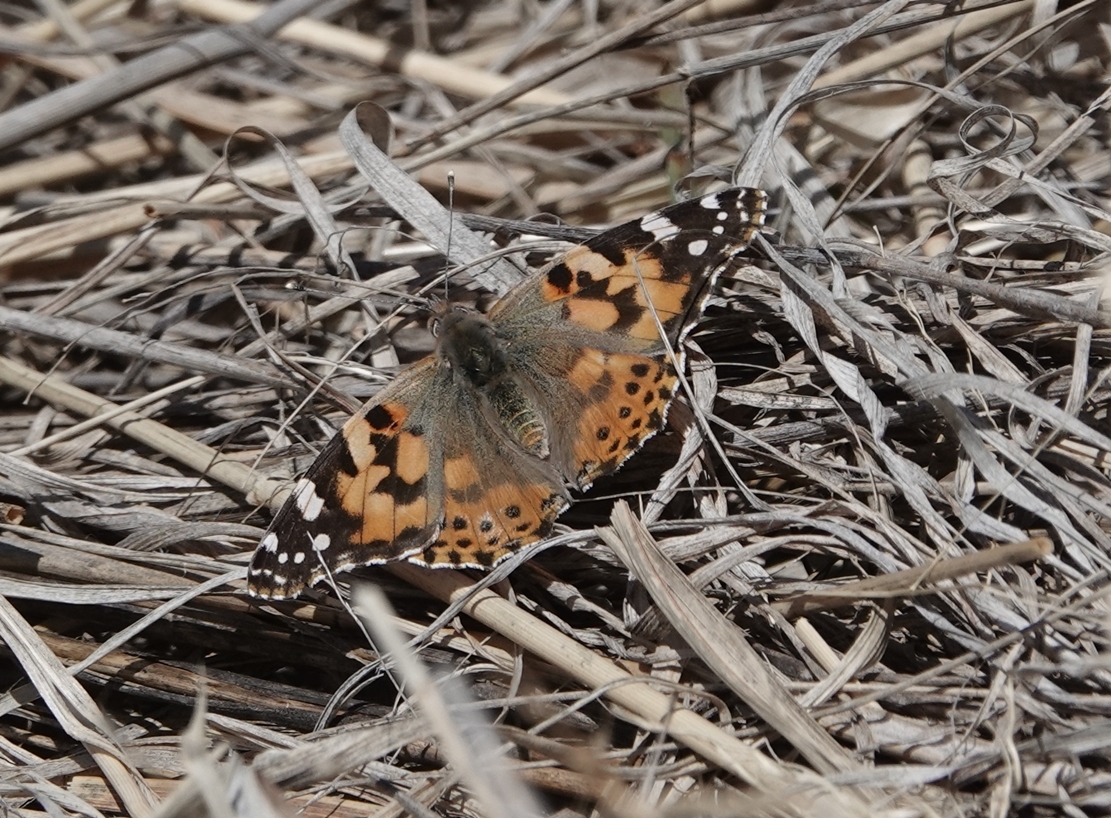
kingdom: Animalia
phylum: Arthropoda
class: Insecta
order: Lepidoptera
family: Nymphalidae
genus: Vanessa
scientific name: Vanessa cardui
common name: Painted lady
